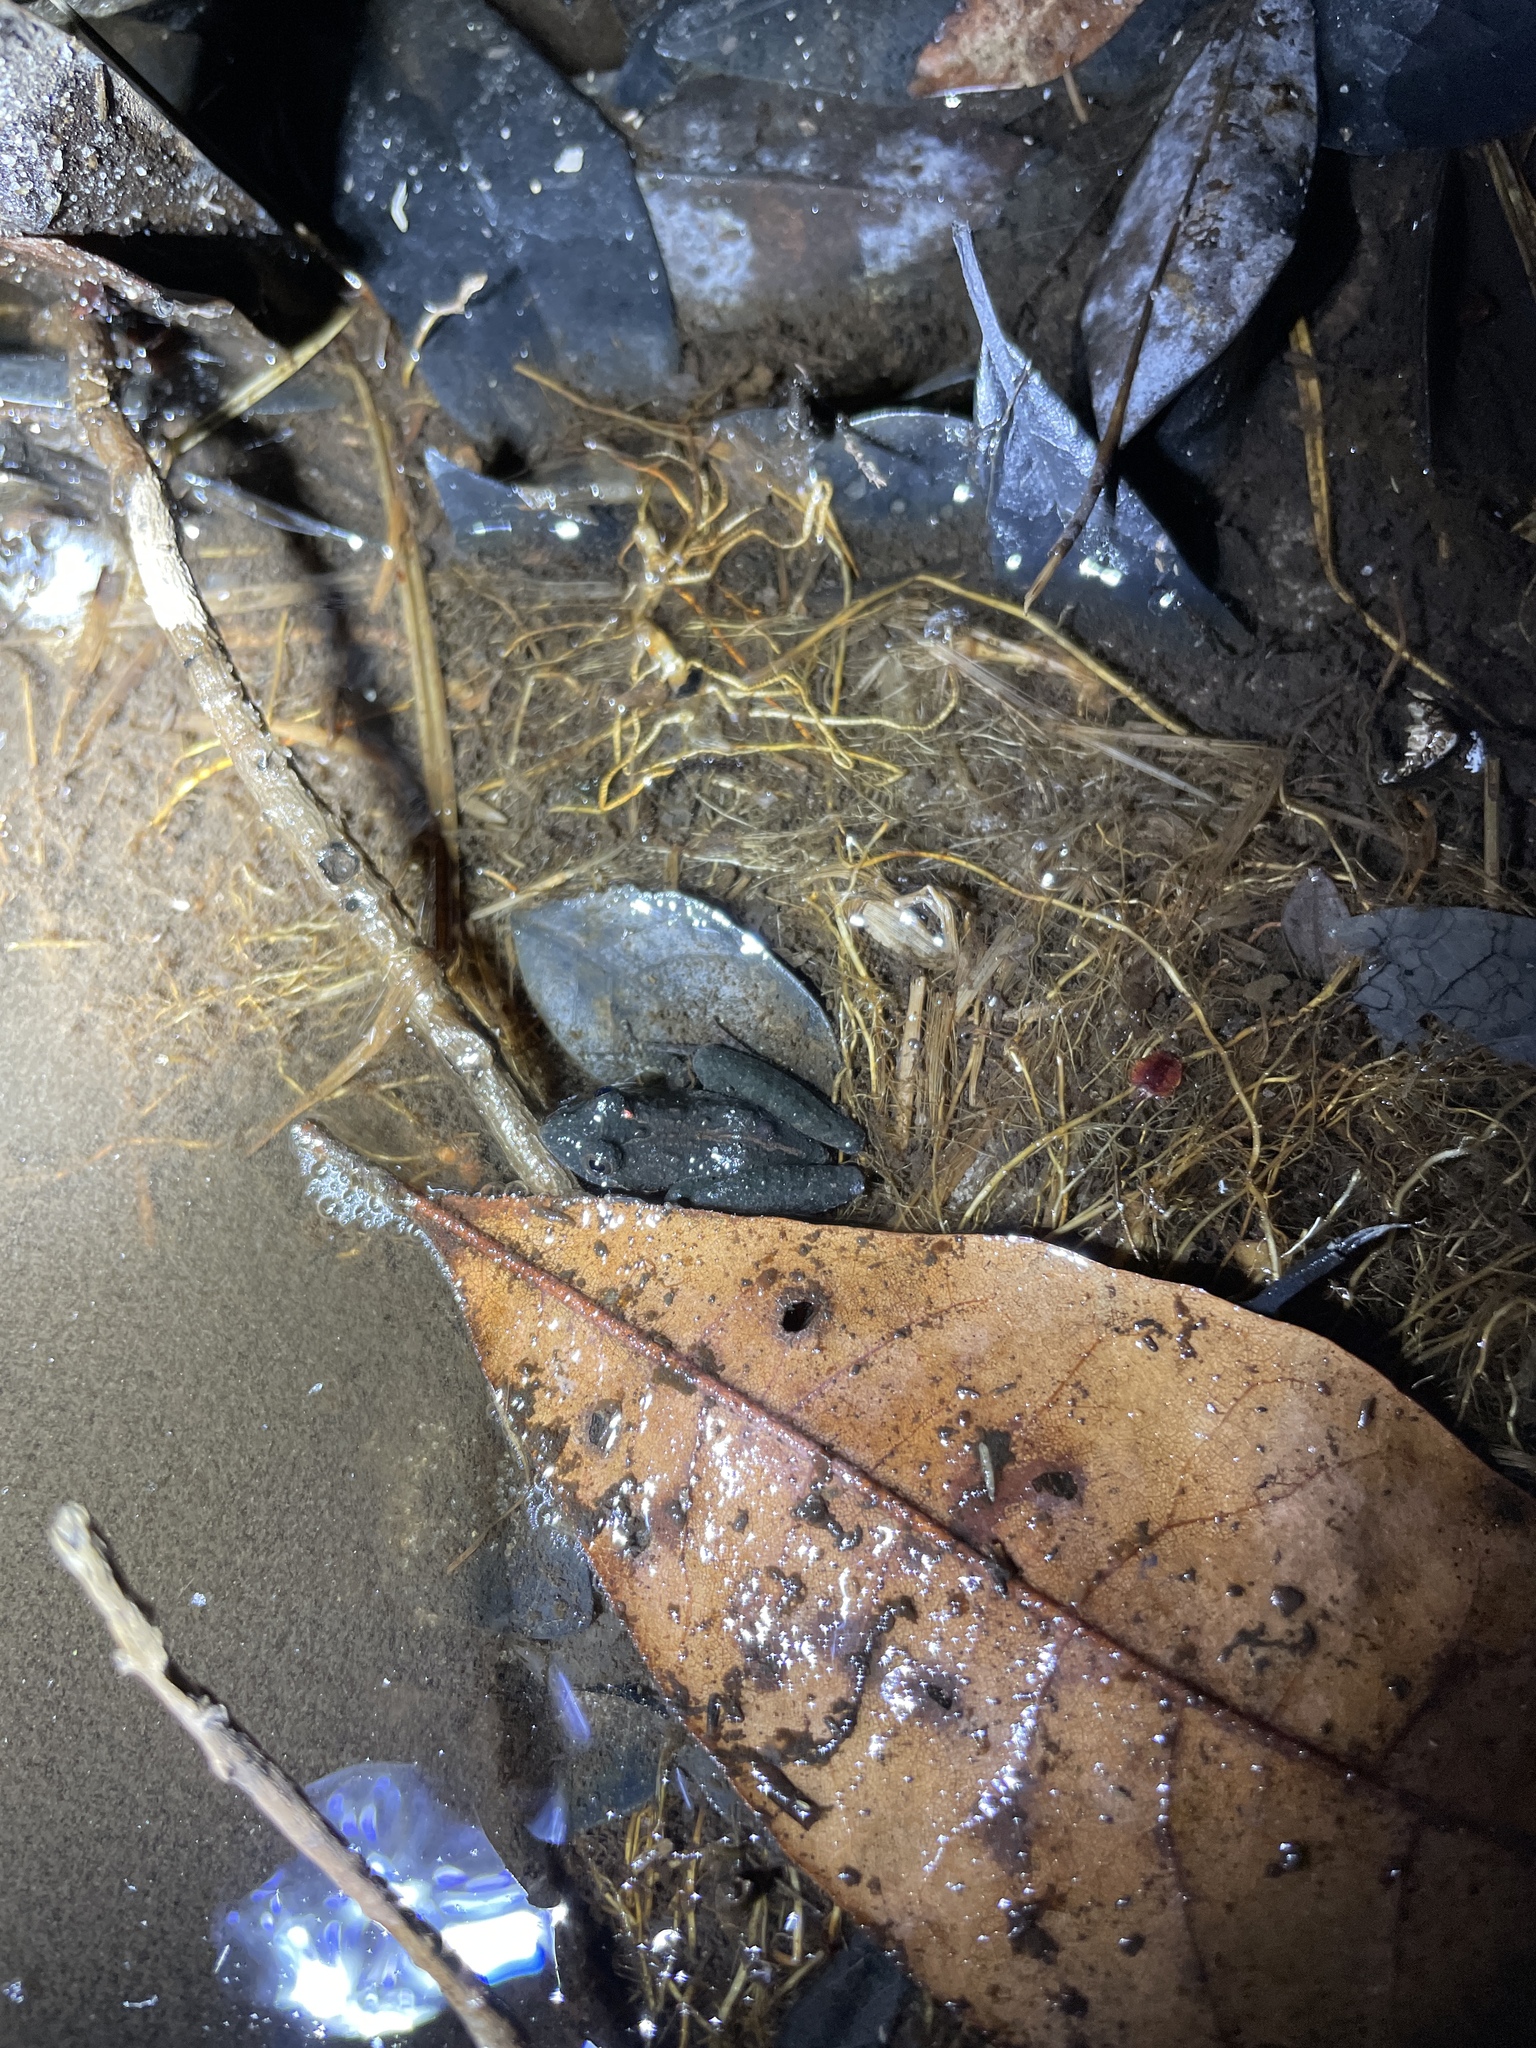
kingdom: Animalia
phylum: Chordata
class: Amphibia
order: Anura
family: Hylidae
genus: Acris
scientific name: Acris gryllus
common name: Southern cricket frog
